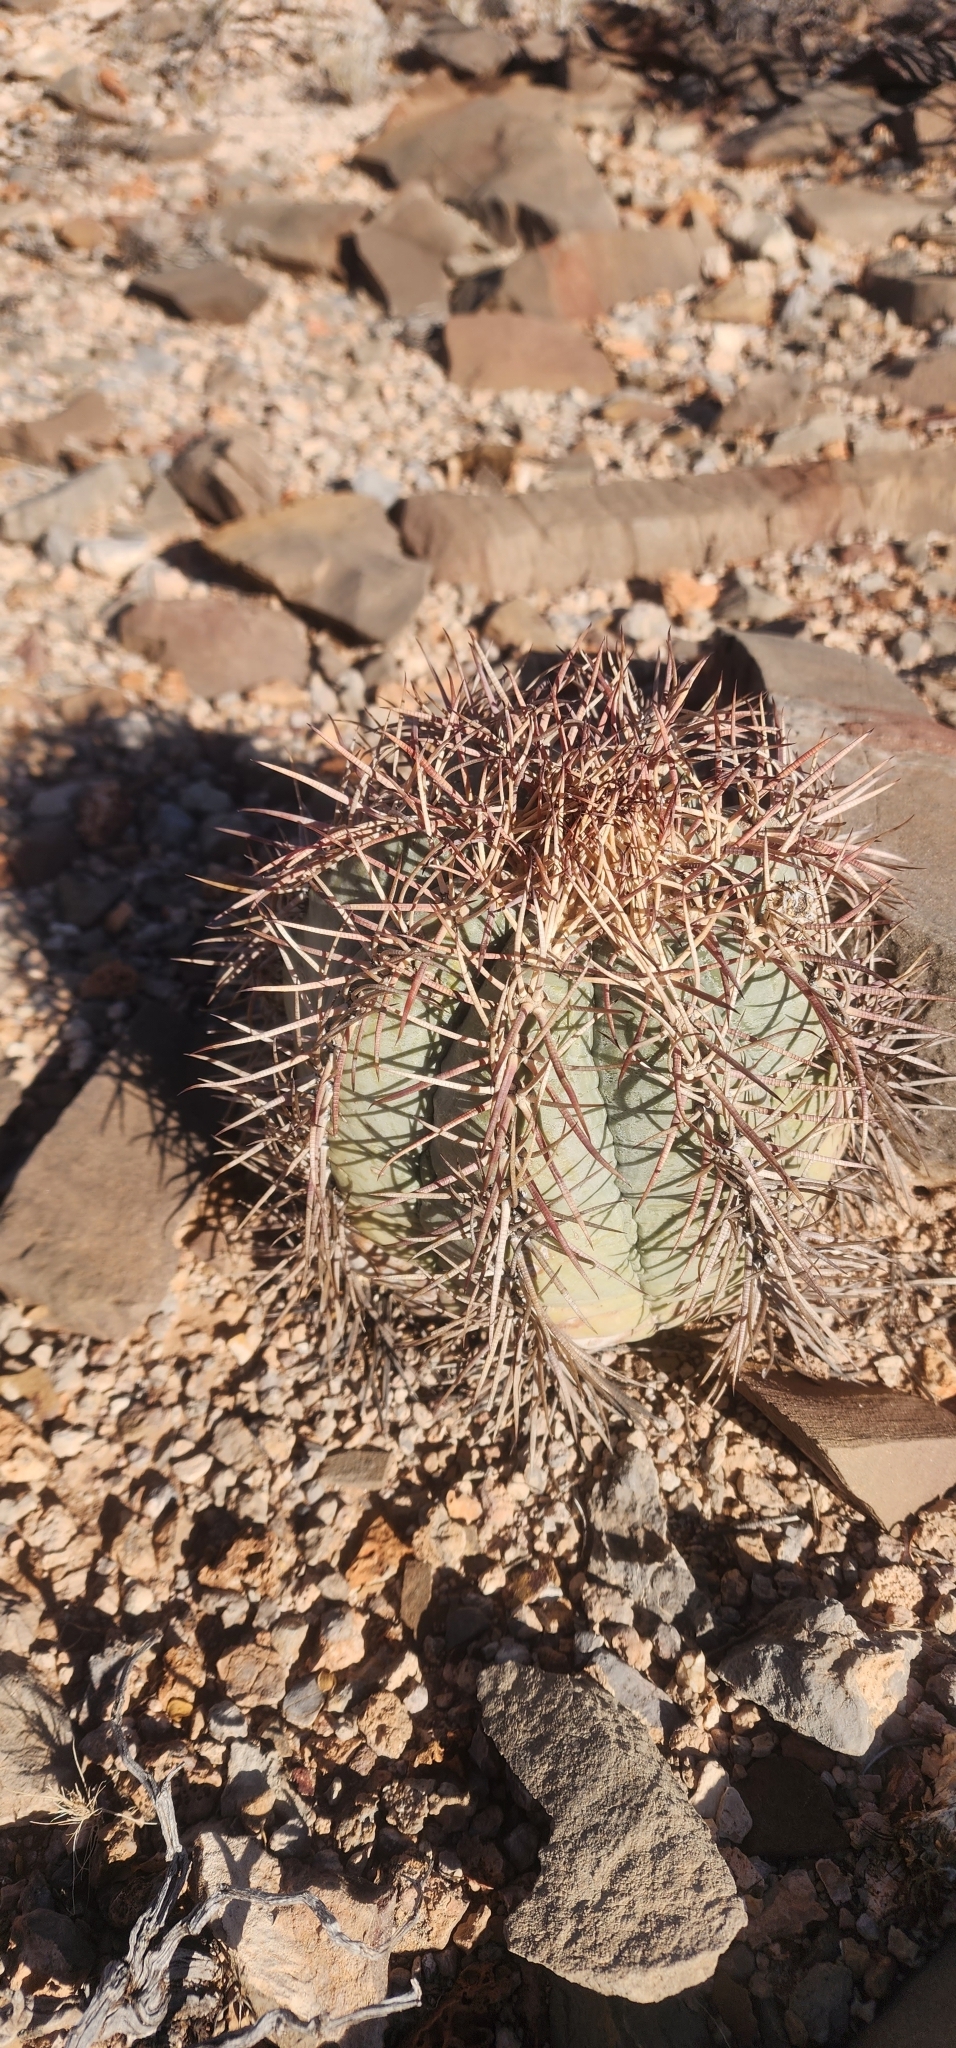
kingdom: Plantae
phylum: Tracheophyta
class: Magnoliopsida
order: Caryophyllales
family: Cactaceae
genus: Echinocactus
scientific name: Echinocactus horizonthalonius
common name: Devilshead
